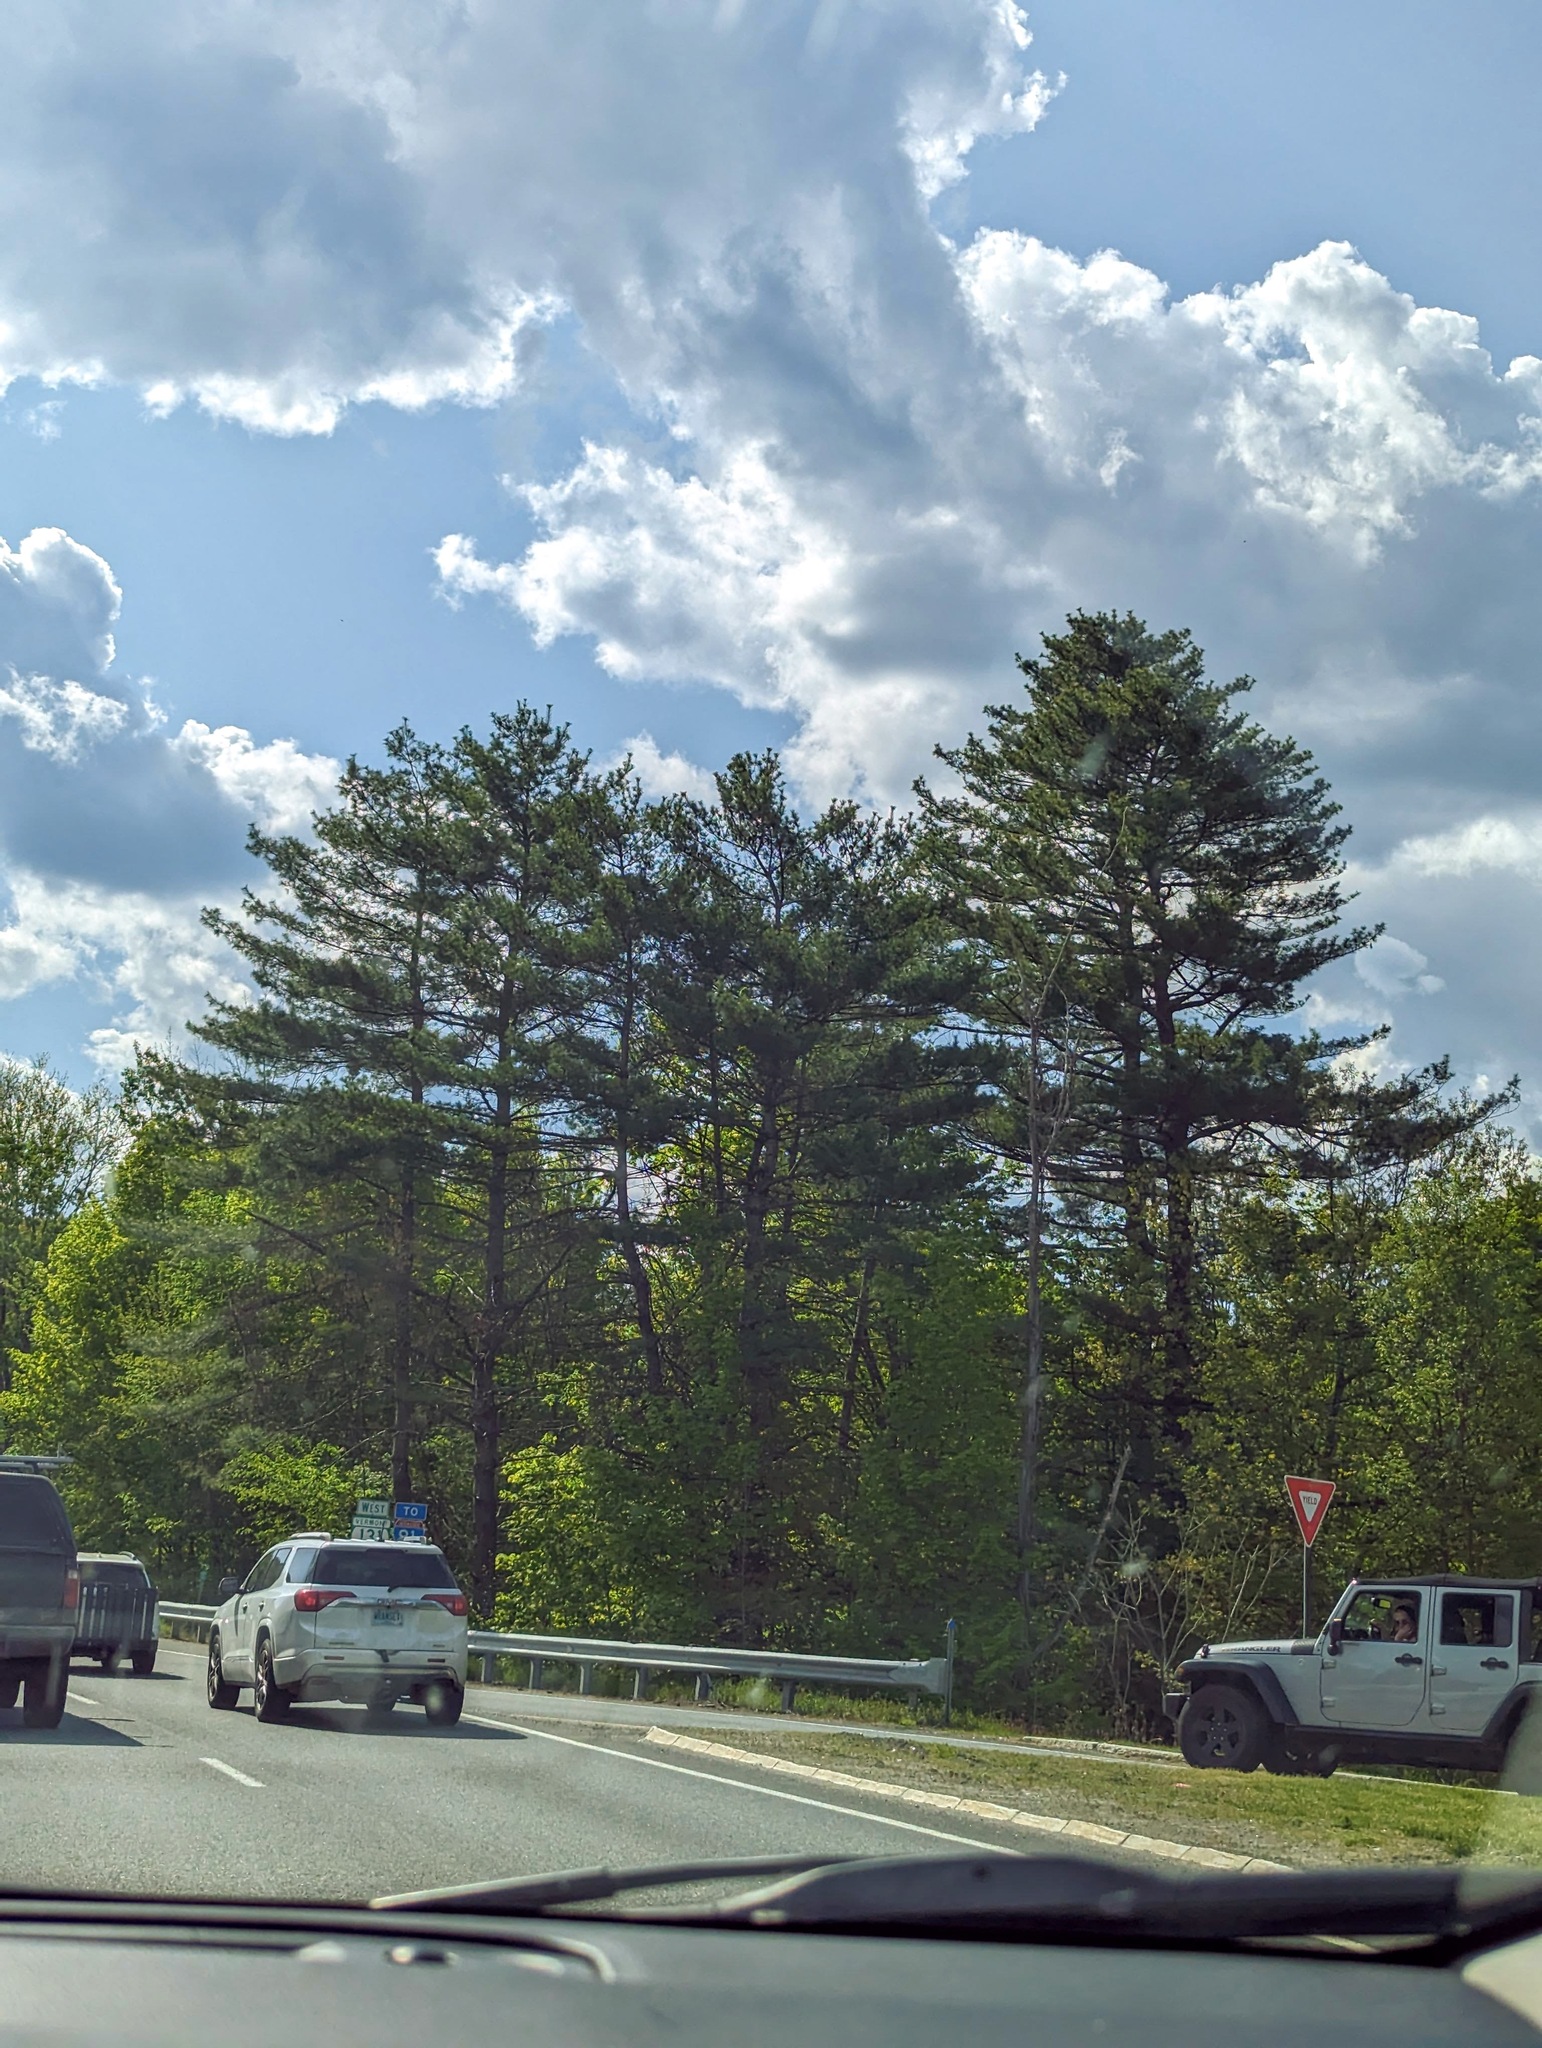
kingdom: Plantae
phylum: Tracheophyta
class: Pinopsida
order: Pinales
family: Pinaceae
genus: Pinus
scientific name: Pinus strobus
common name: Weymouth pine
